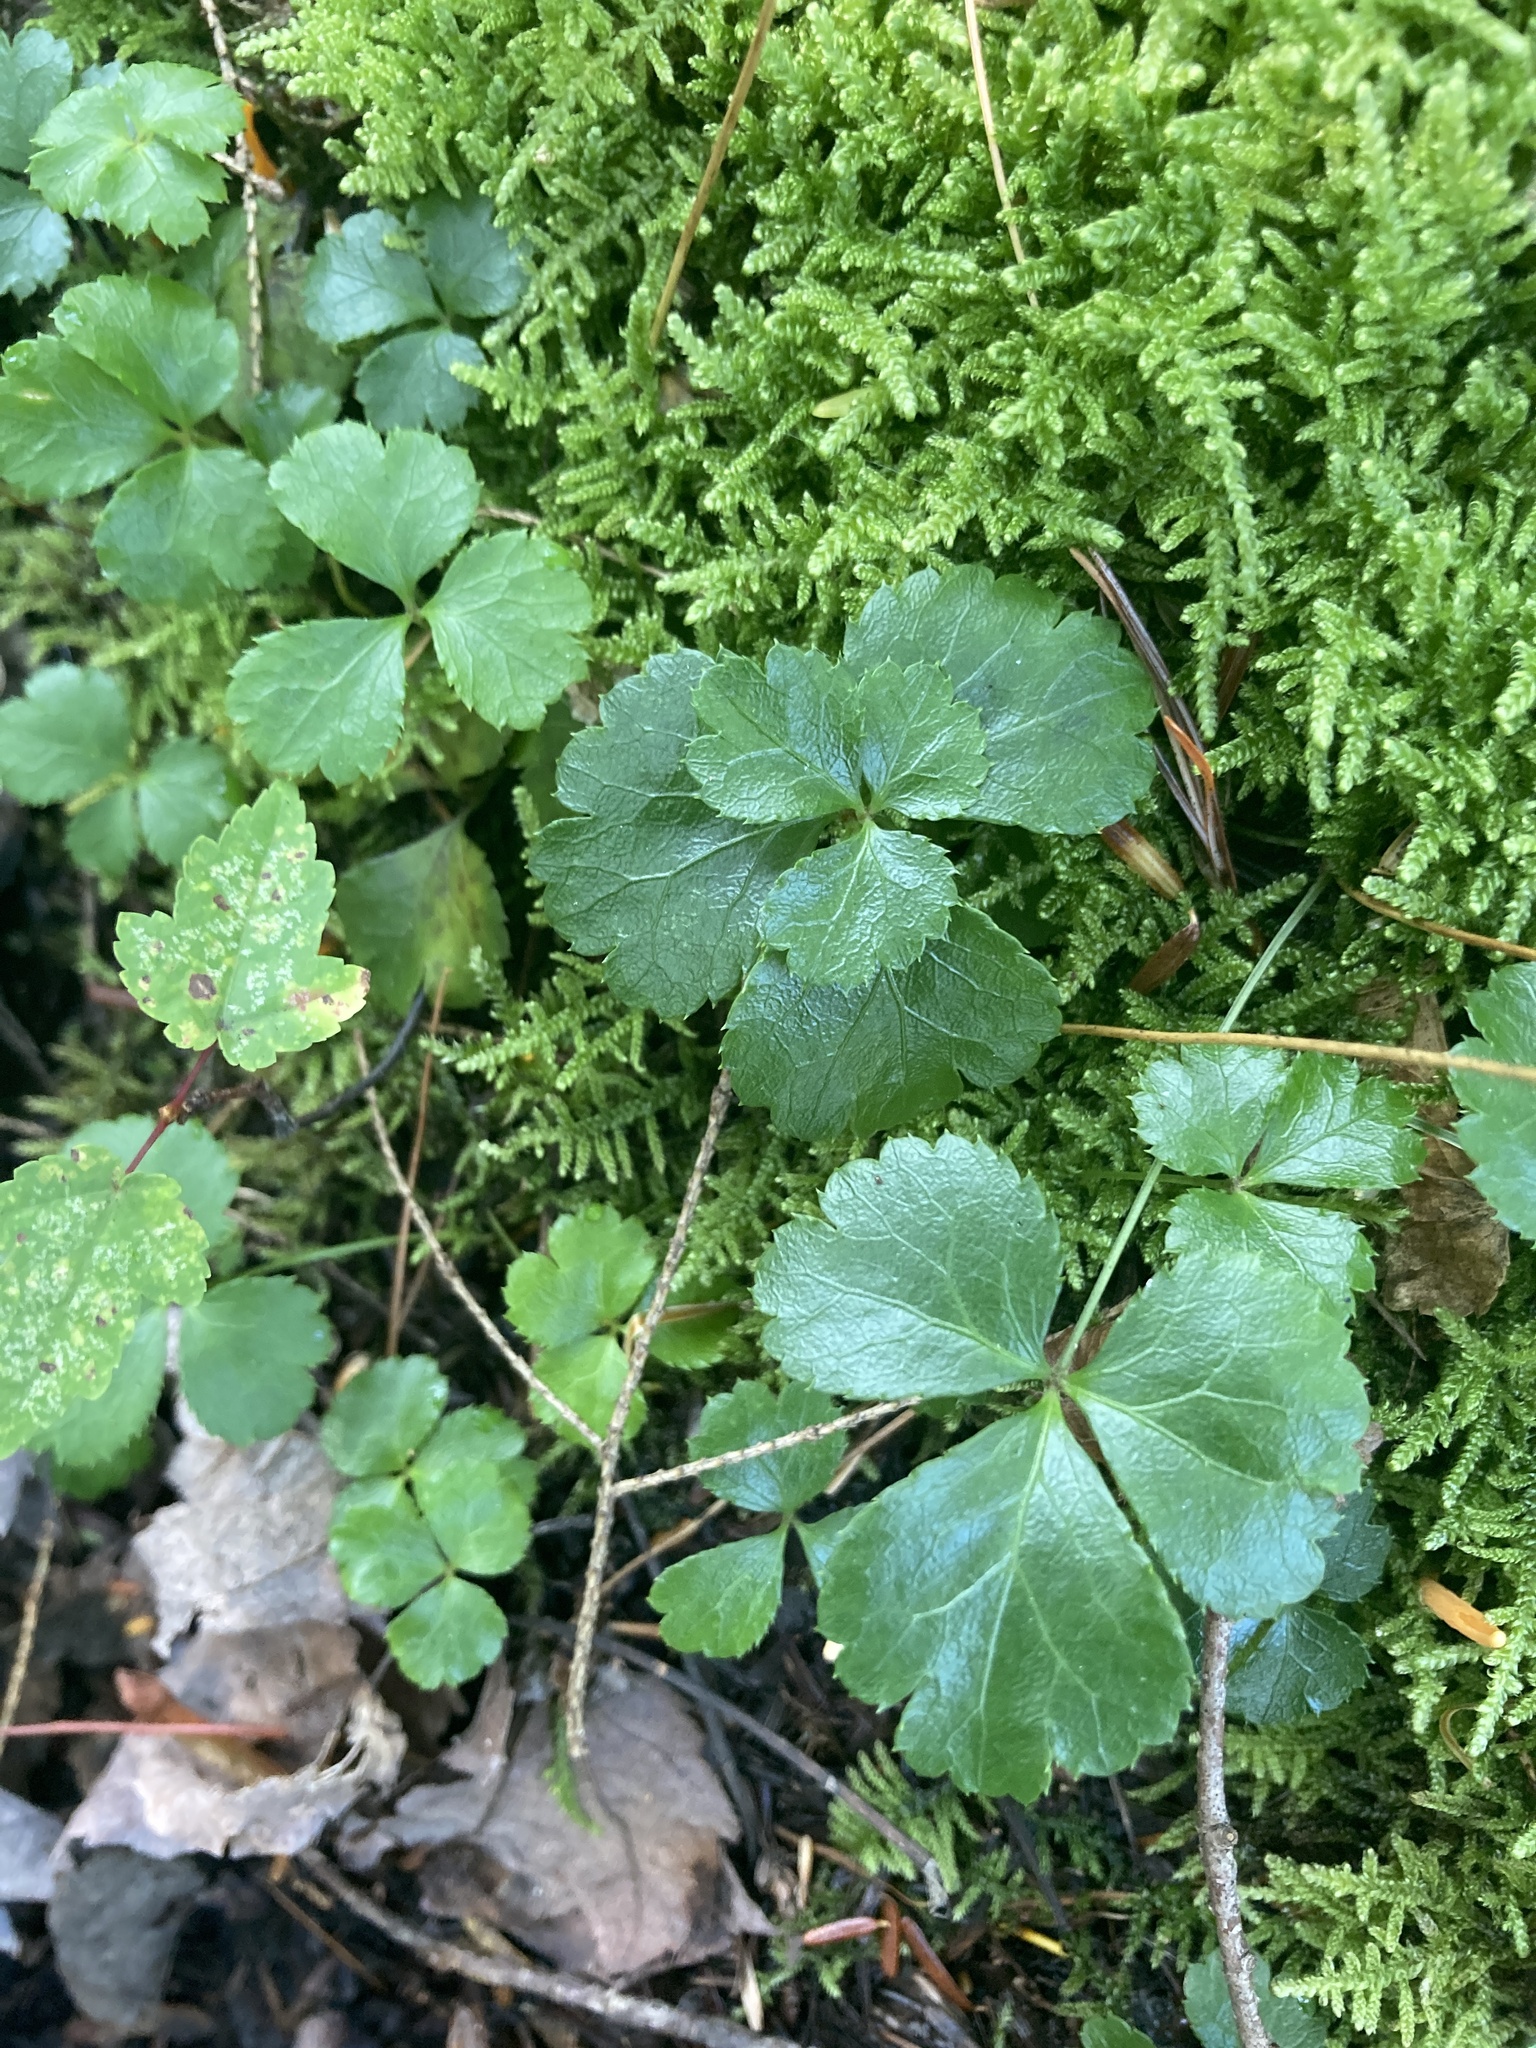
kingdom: Plantae
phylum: Tracheophyta
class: Magnoliopsida
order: Ranunculales
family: Ranunculaceae
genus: Coptis
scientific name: Coptis trifolia
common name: Canker-root
